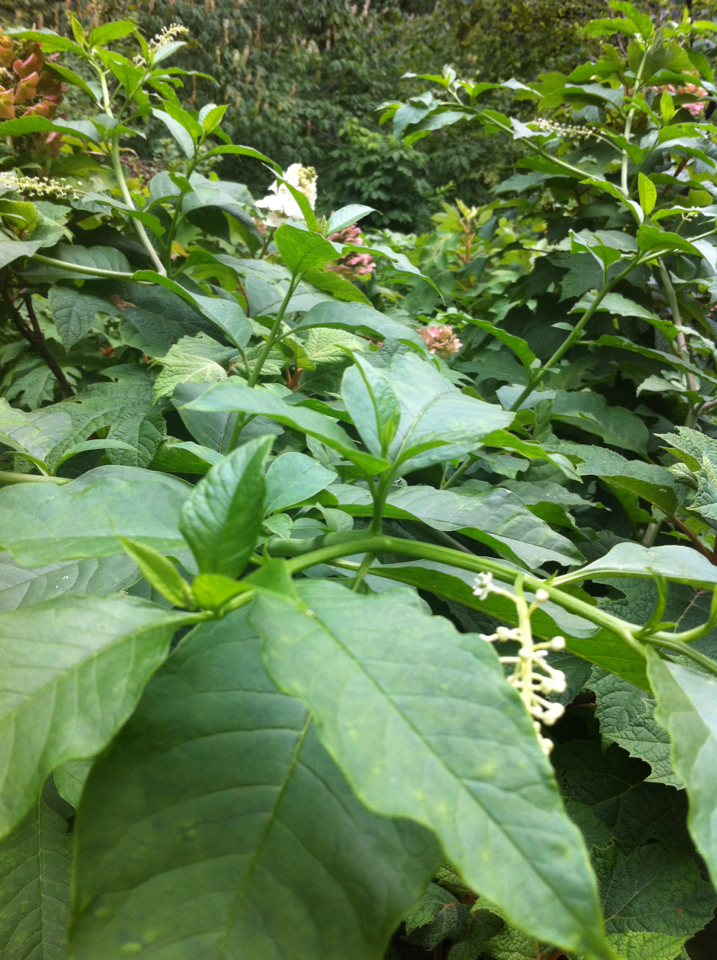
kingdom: Plantae
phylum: Tracheophyta
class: Magnoliopsida
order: Caryophyllales
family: Phytolaccaceae
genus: Phytolacca
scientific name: Phytolacca americana
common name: American pokeweed
